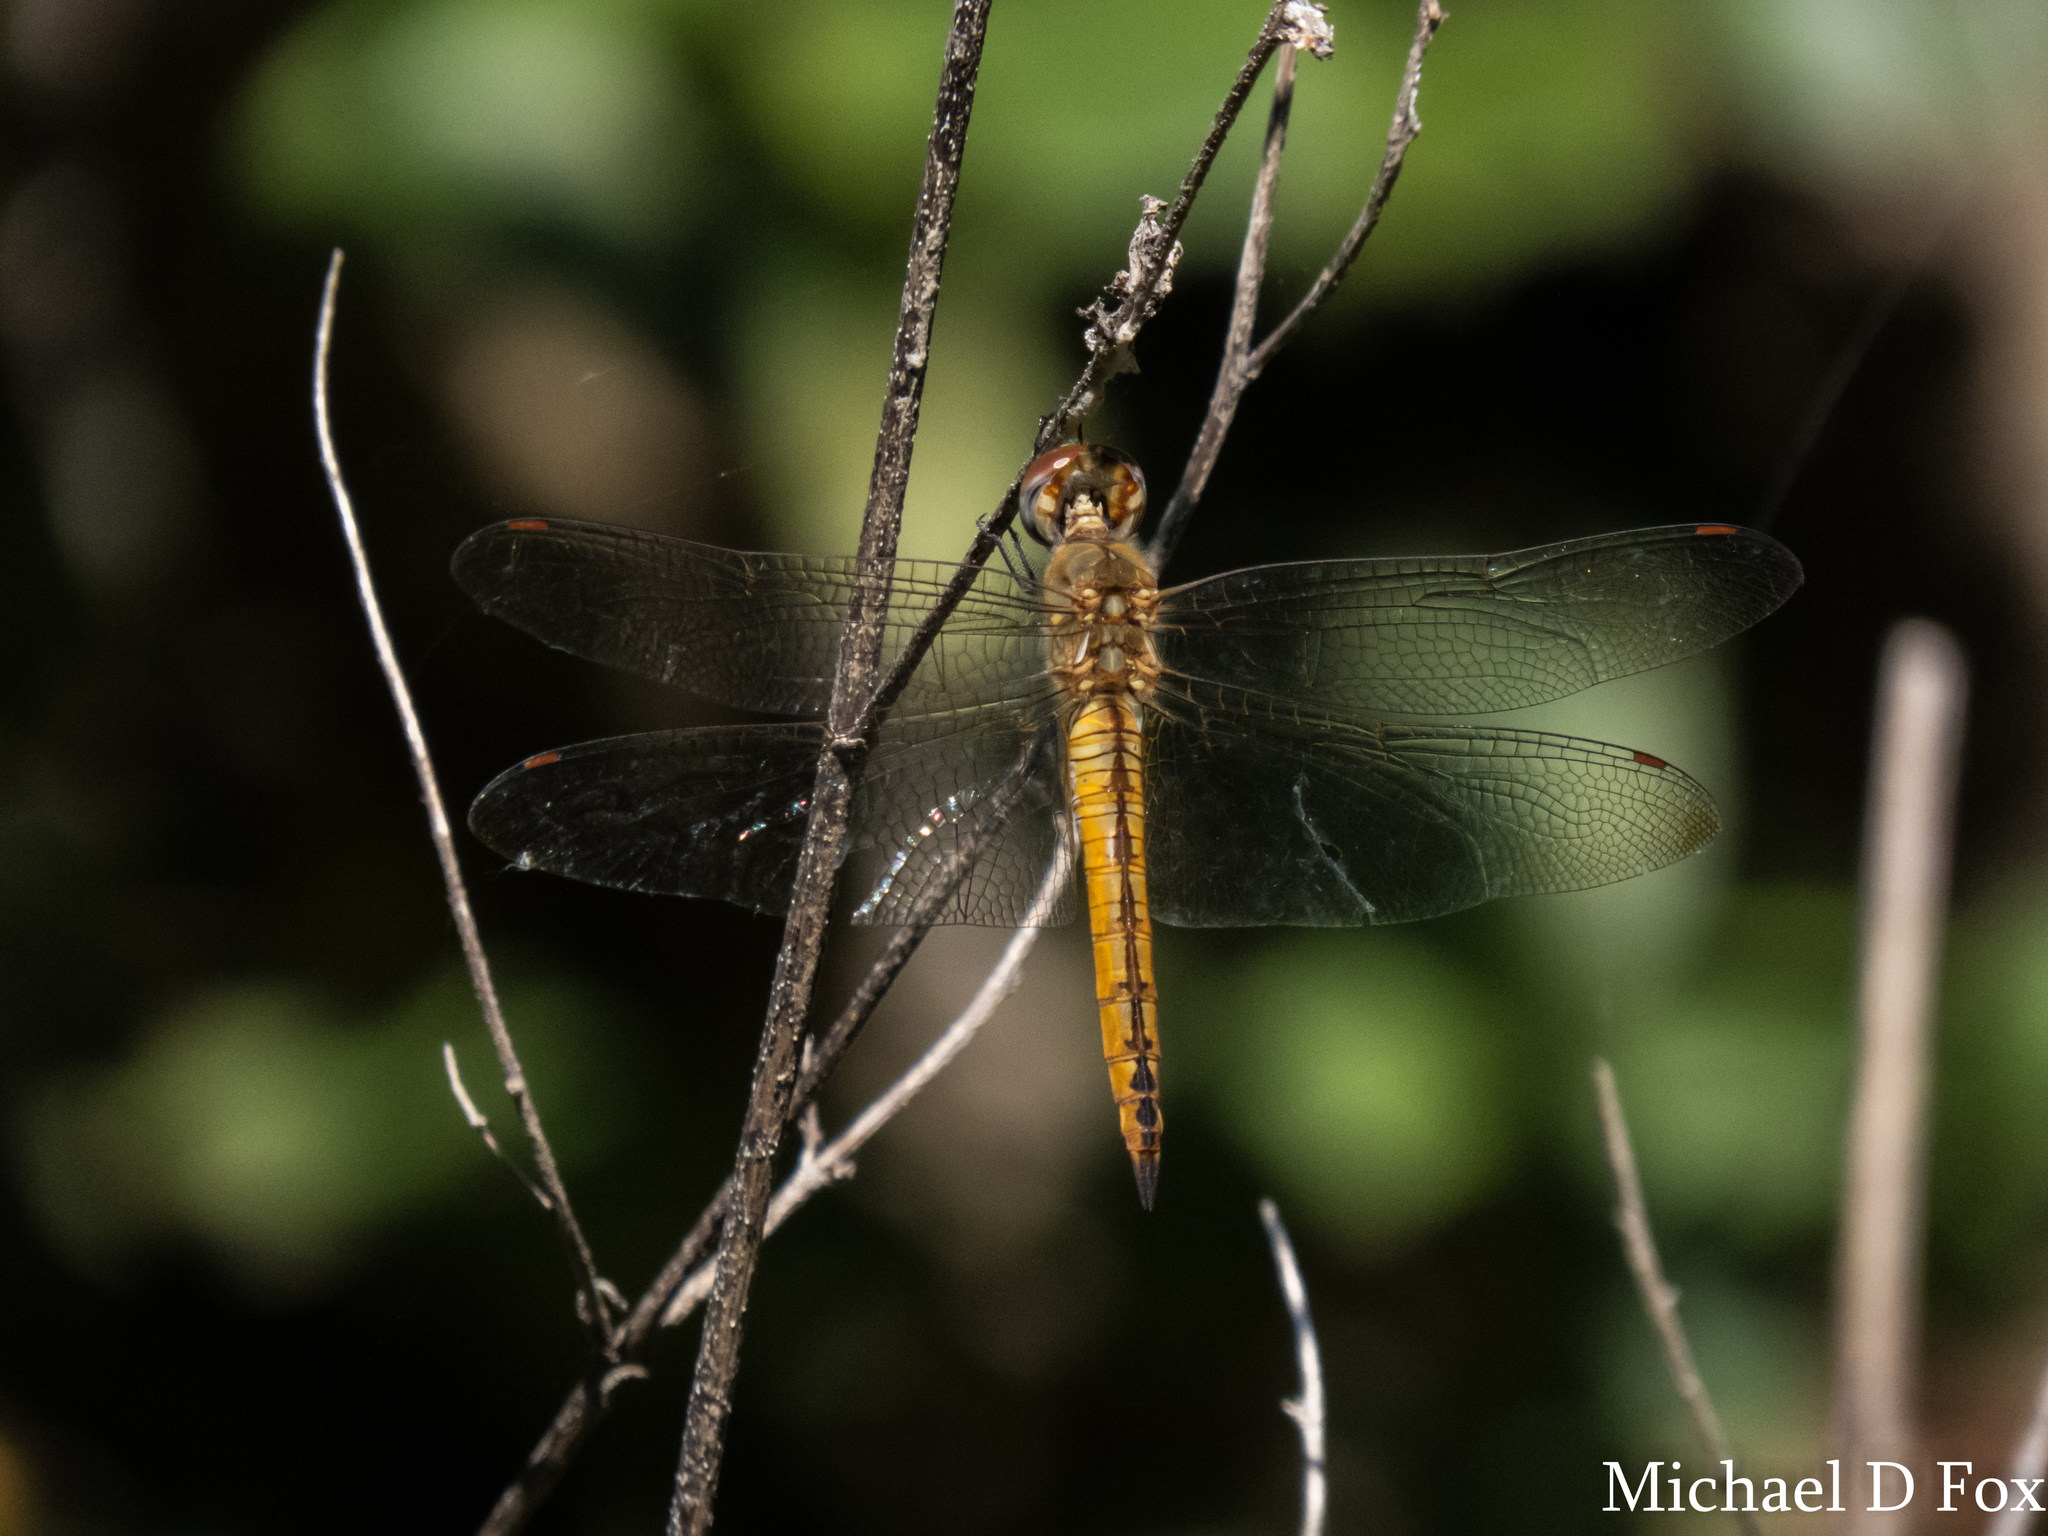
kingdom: Animalia
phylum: Arthropoda
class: Insecta
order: Odonata
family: Libellulidae
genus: Pantala
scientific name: Pantala flavescens
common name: Wandering glider
